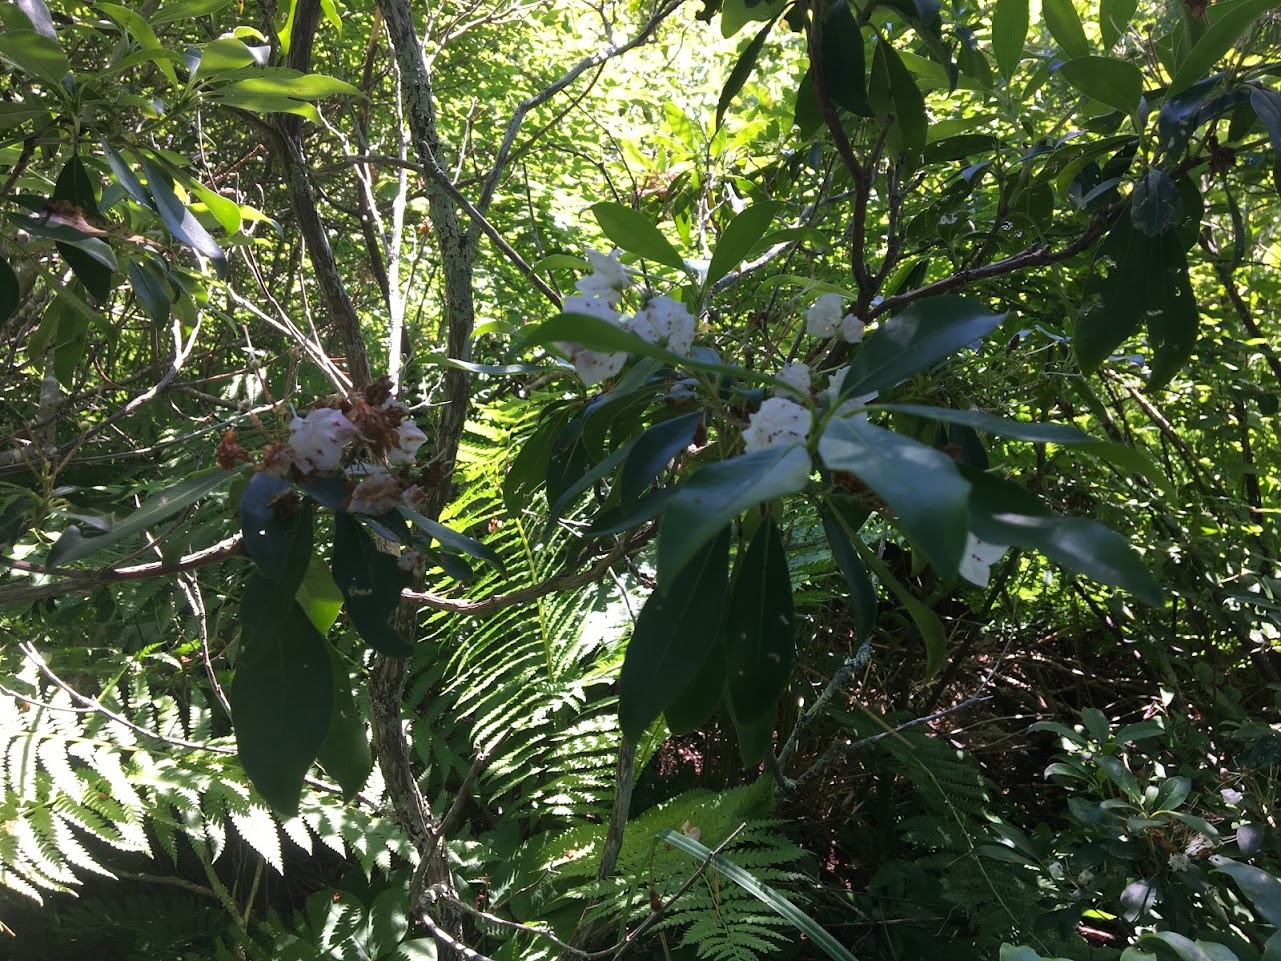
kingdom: Plantae
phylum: Tracheophyta
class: Magnoliopsida
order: Ericales
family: Ericaceae
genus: Kalmia
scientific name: Kalmia latifolia
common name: Mountain-laurel
